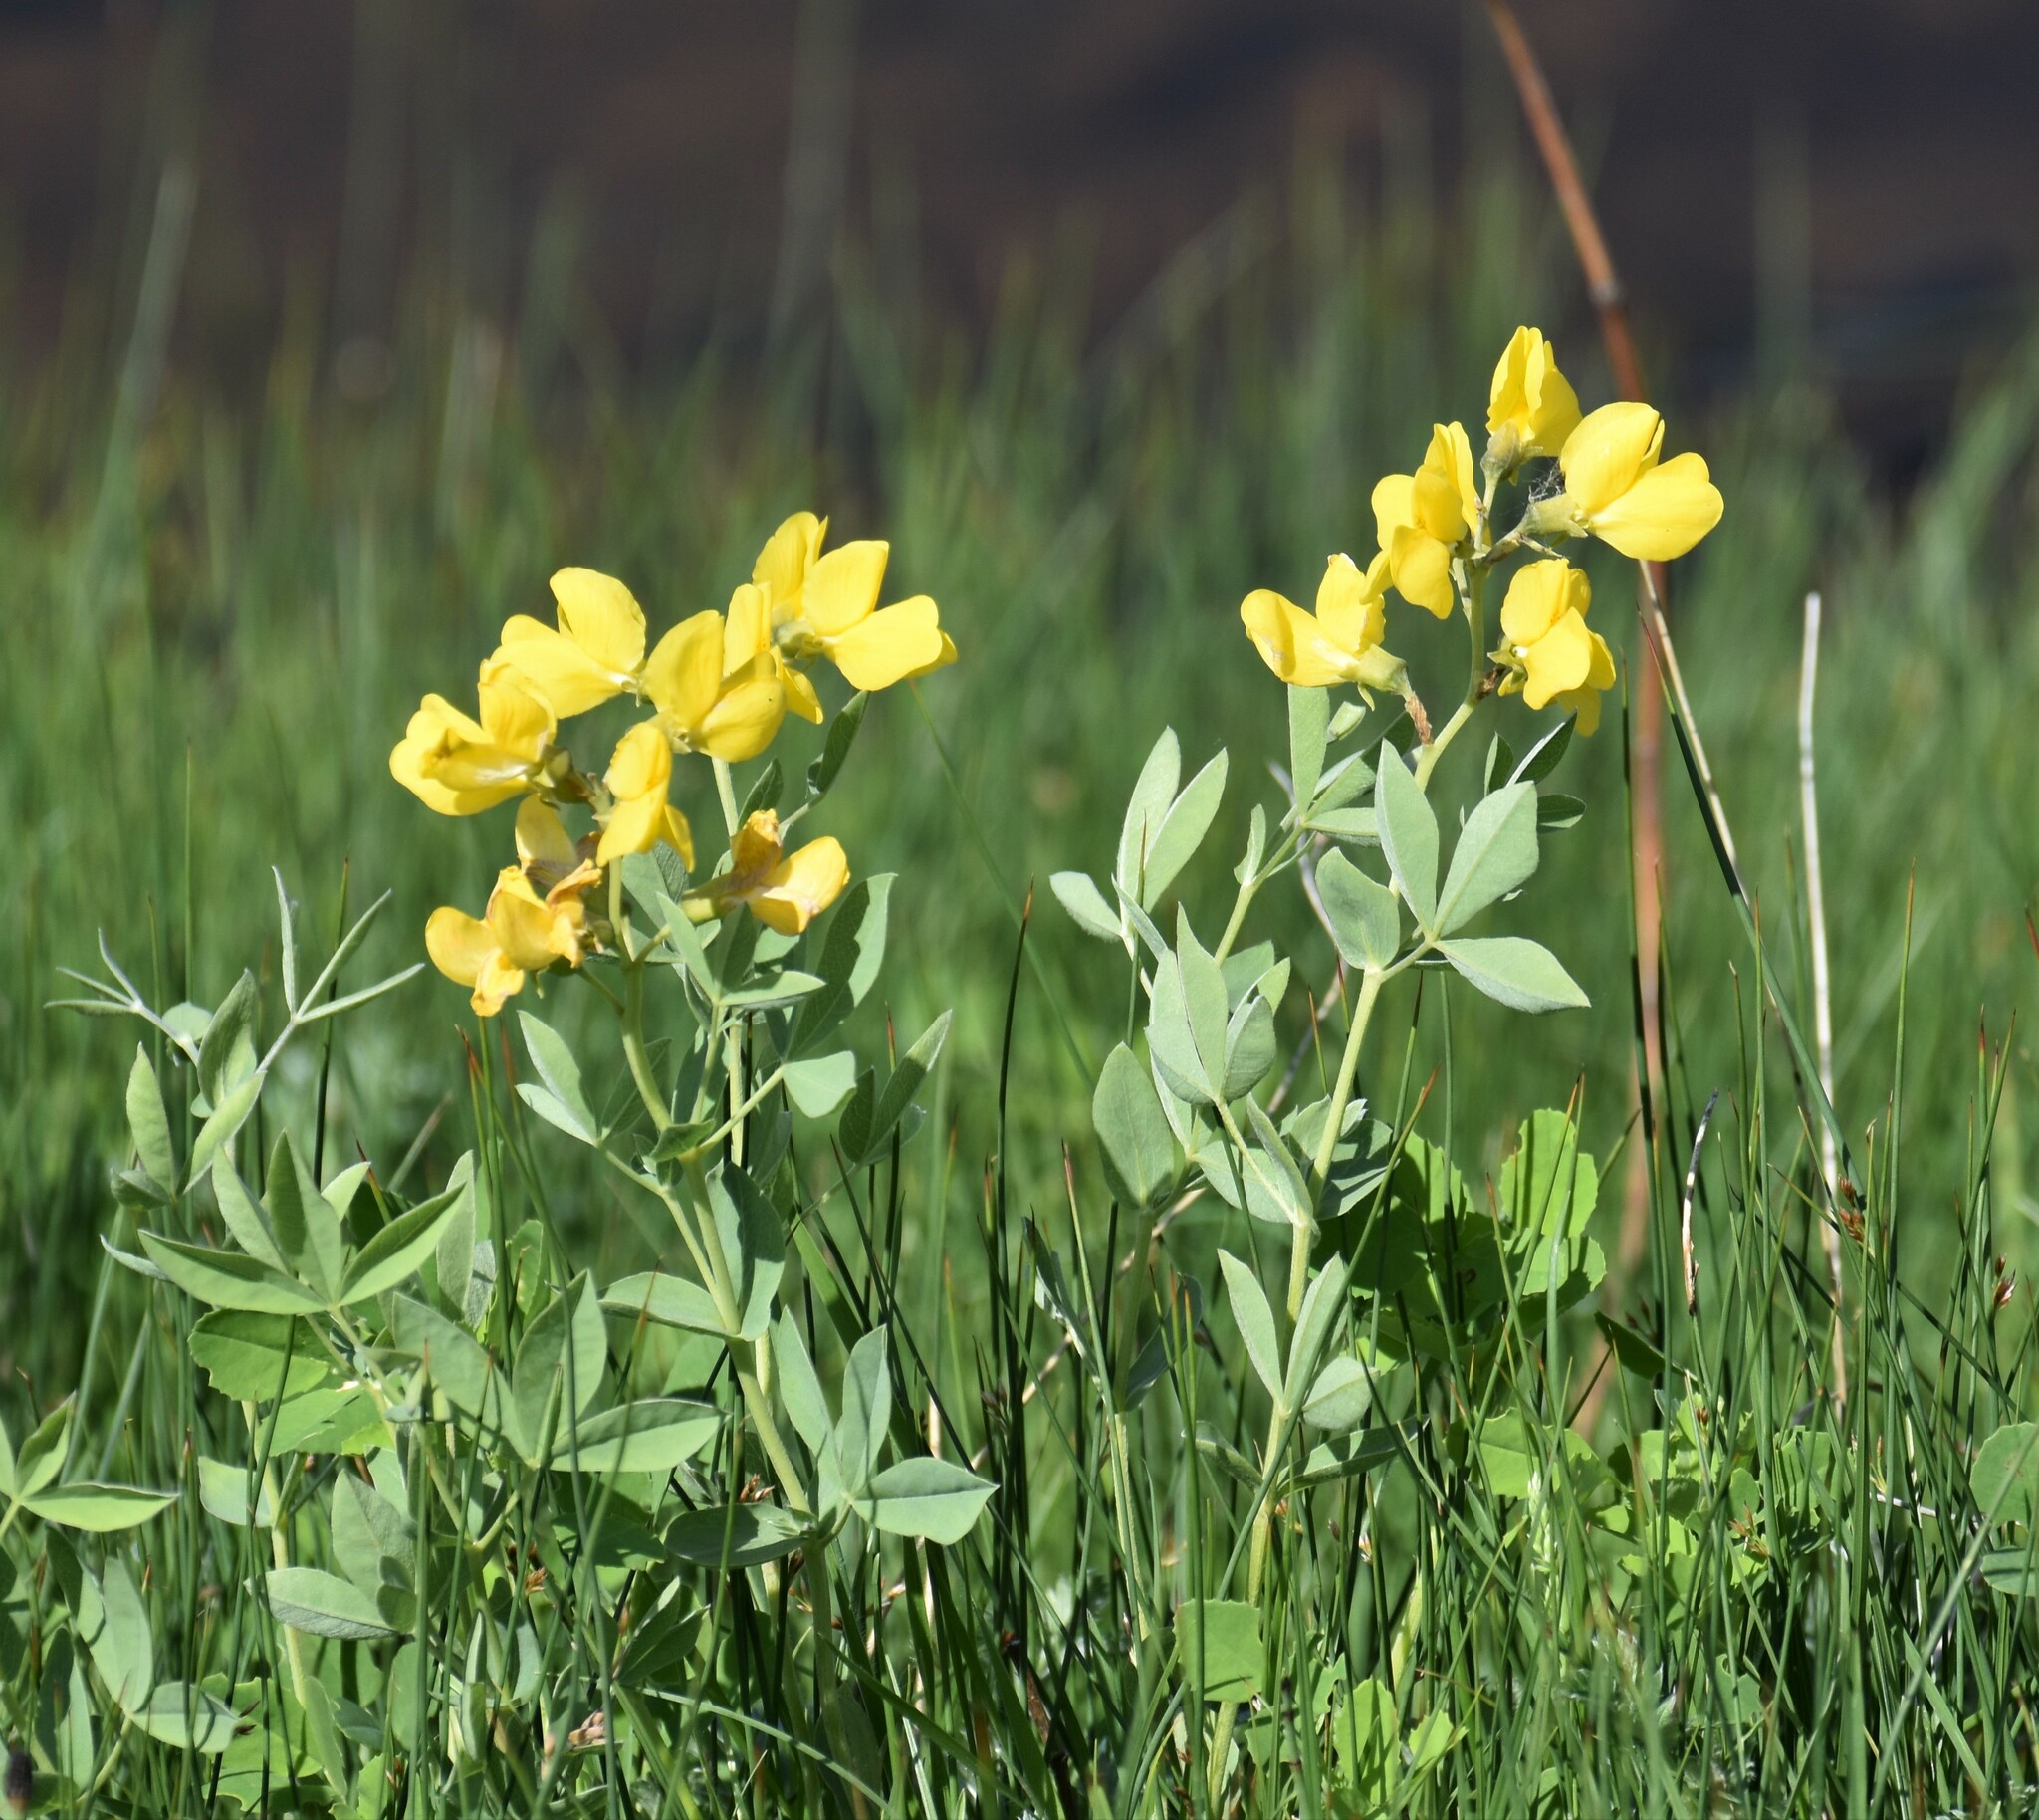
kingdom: Plantae
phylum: Tracheophyta
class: Magnoliopsida
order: Fabales
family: Fabaceae
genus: Thermopsis
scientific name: Thermopsis rhombifolia
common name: Circle-pod-pea
